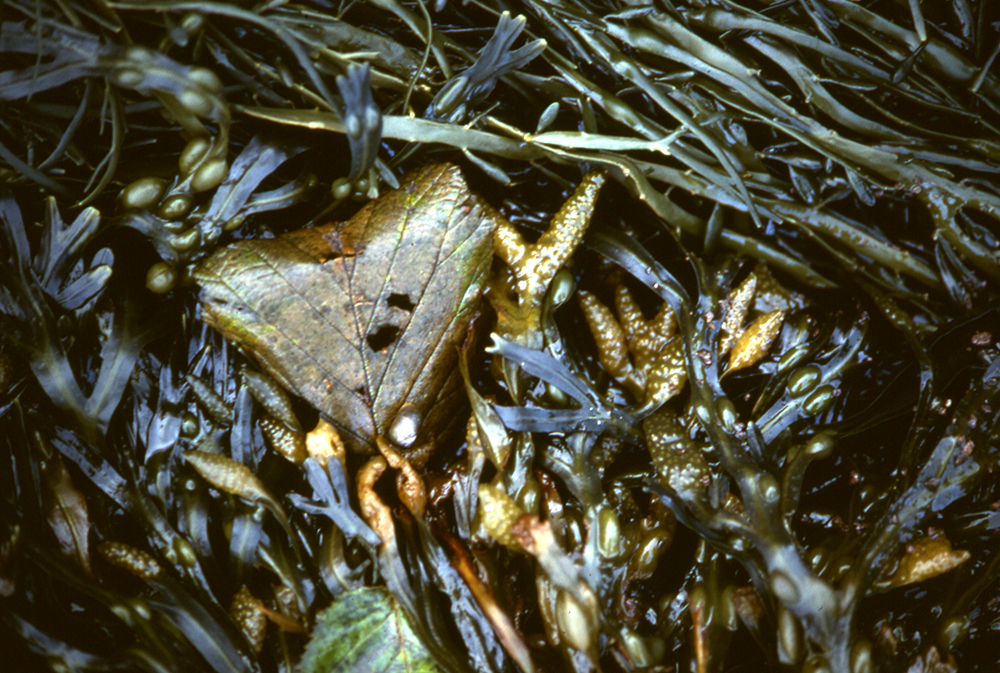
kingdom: Chromista
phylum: Ochrophyta
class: Phaeophyceae
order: Fucales
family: Fucaceae
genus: Fucus
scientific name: Fucus vesiculosus
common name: Bladder wrack
